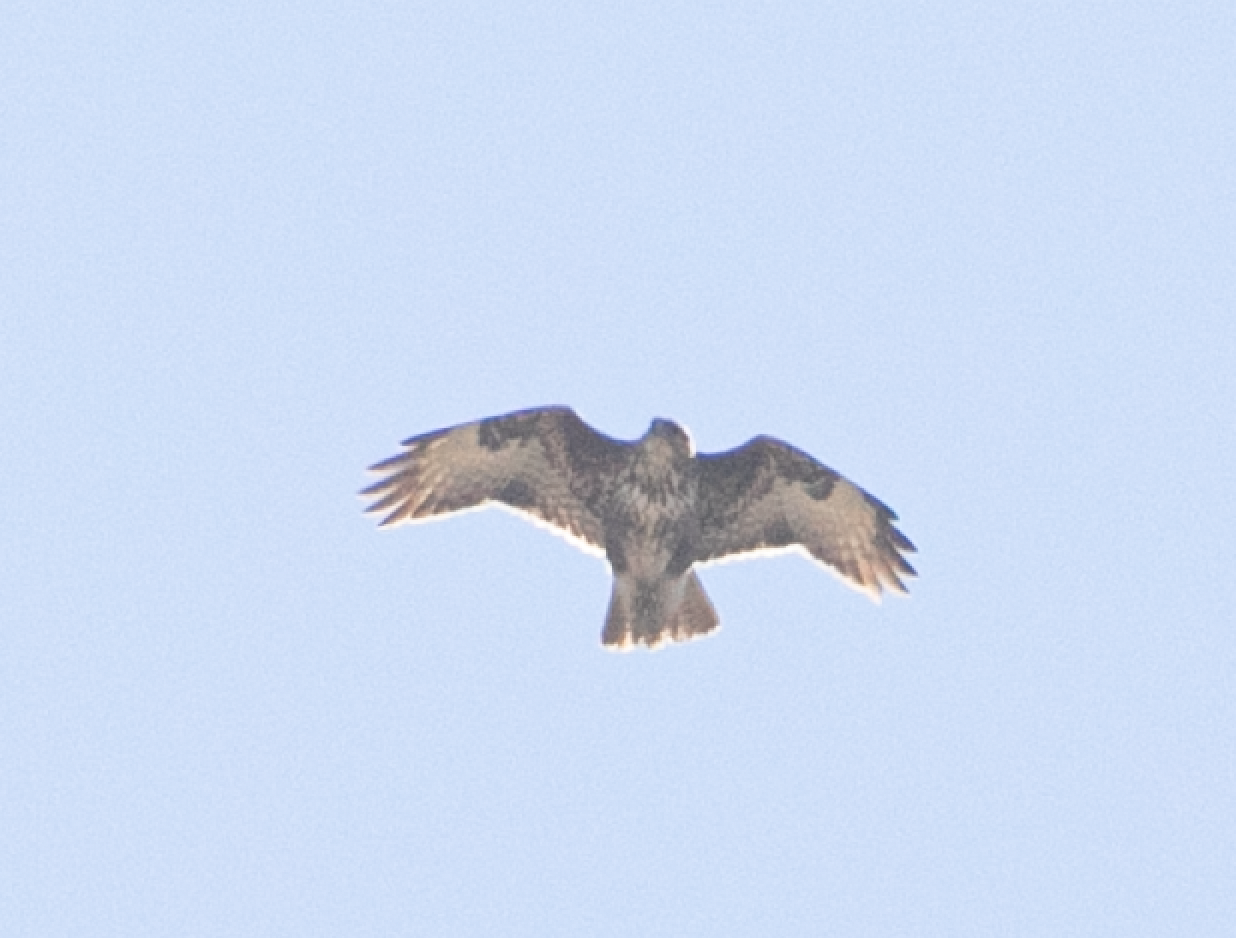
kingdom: Animalia
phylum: Chordata
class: Aves
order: Accipitriformes
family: Accipitridae
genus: Buteo
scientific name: Buteo buteo
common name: Common buzzard
